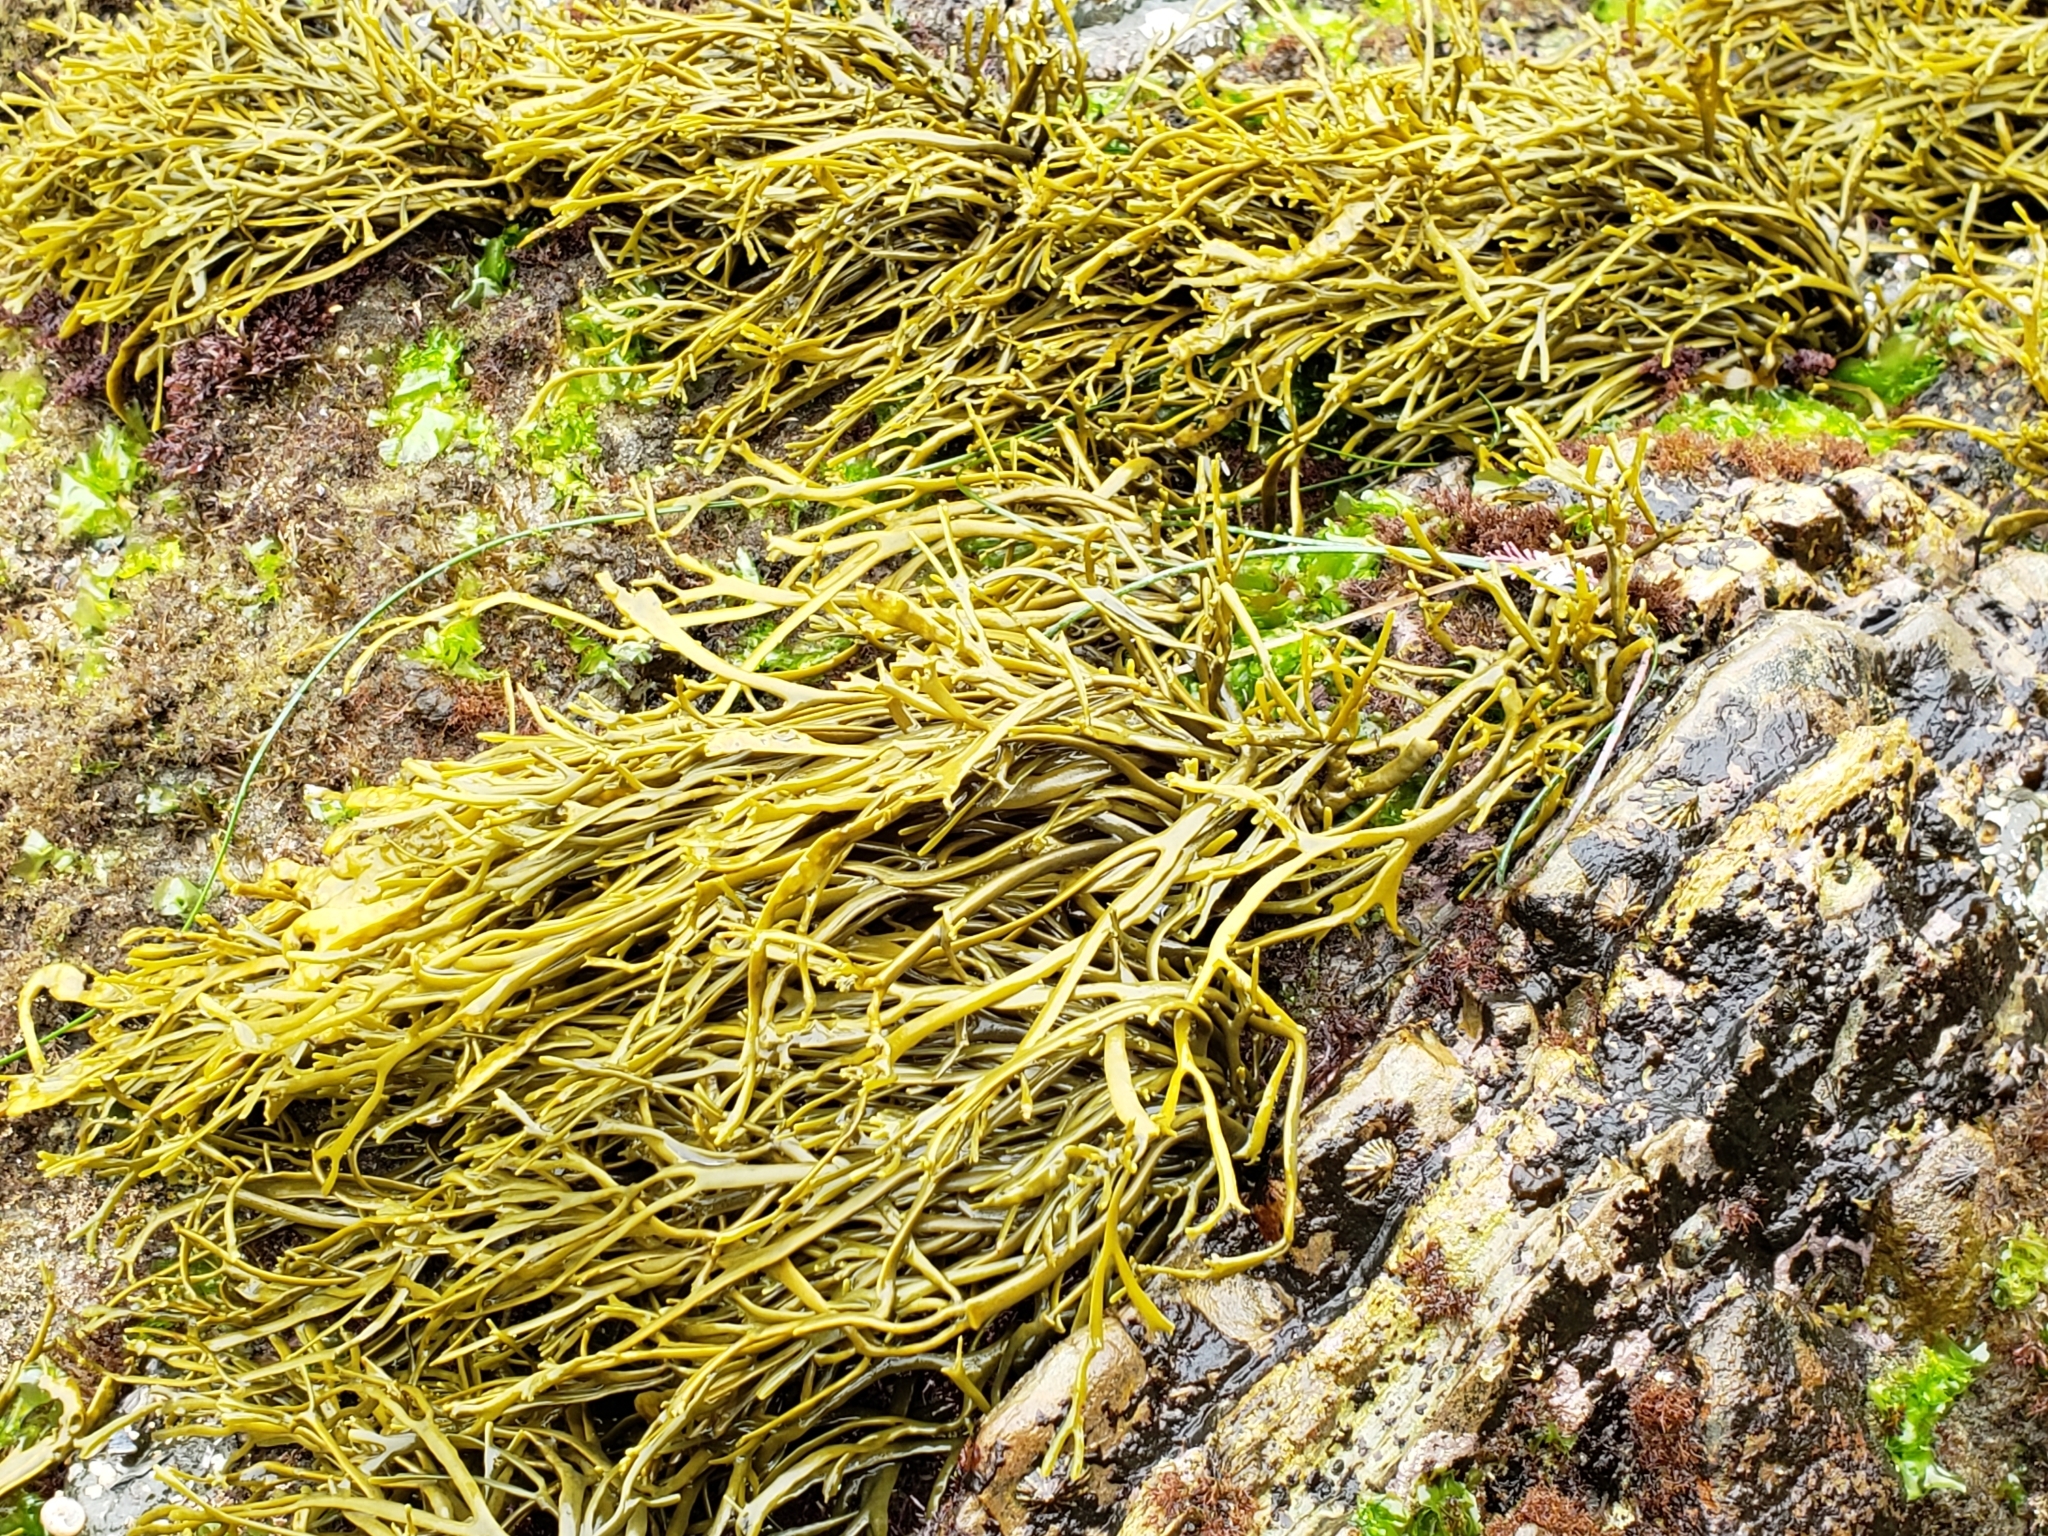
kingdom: Chromista
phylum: Ochrophyta
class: Phaeophyceae
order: Fucales
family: Fucaceae
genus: Silvetia
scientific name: Silvetia
